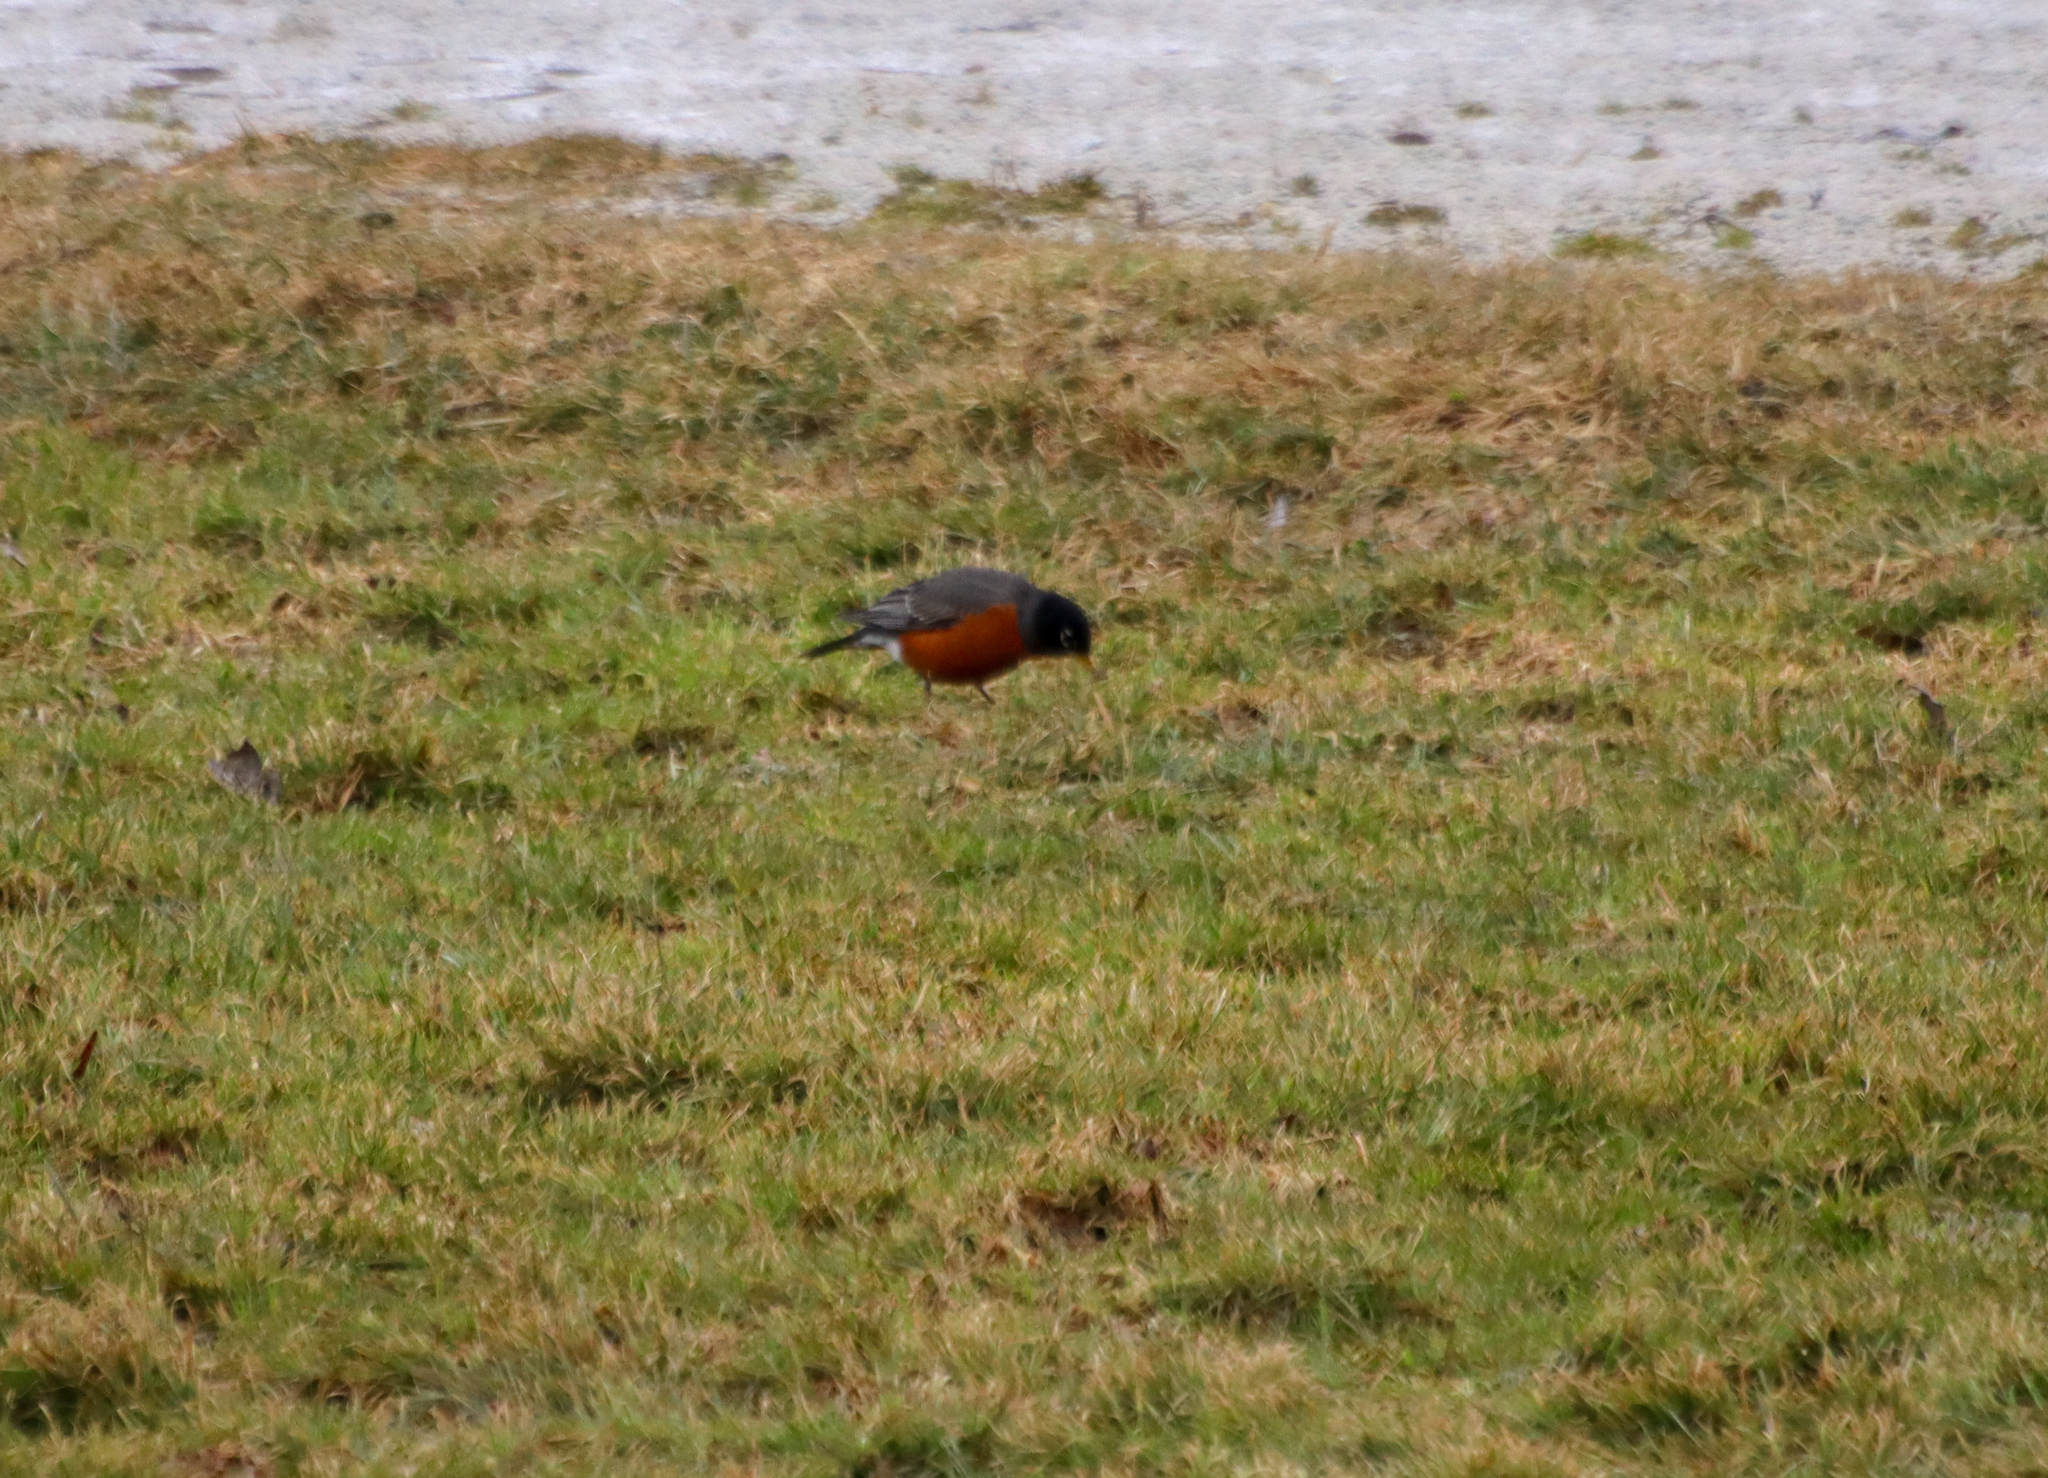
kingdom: Animalia
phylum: Chordata
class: Aves
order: Passeriformes
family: Turdidae
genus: Turdus
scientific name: Turdus migratorius
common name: American robin
